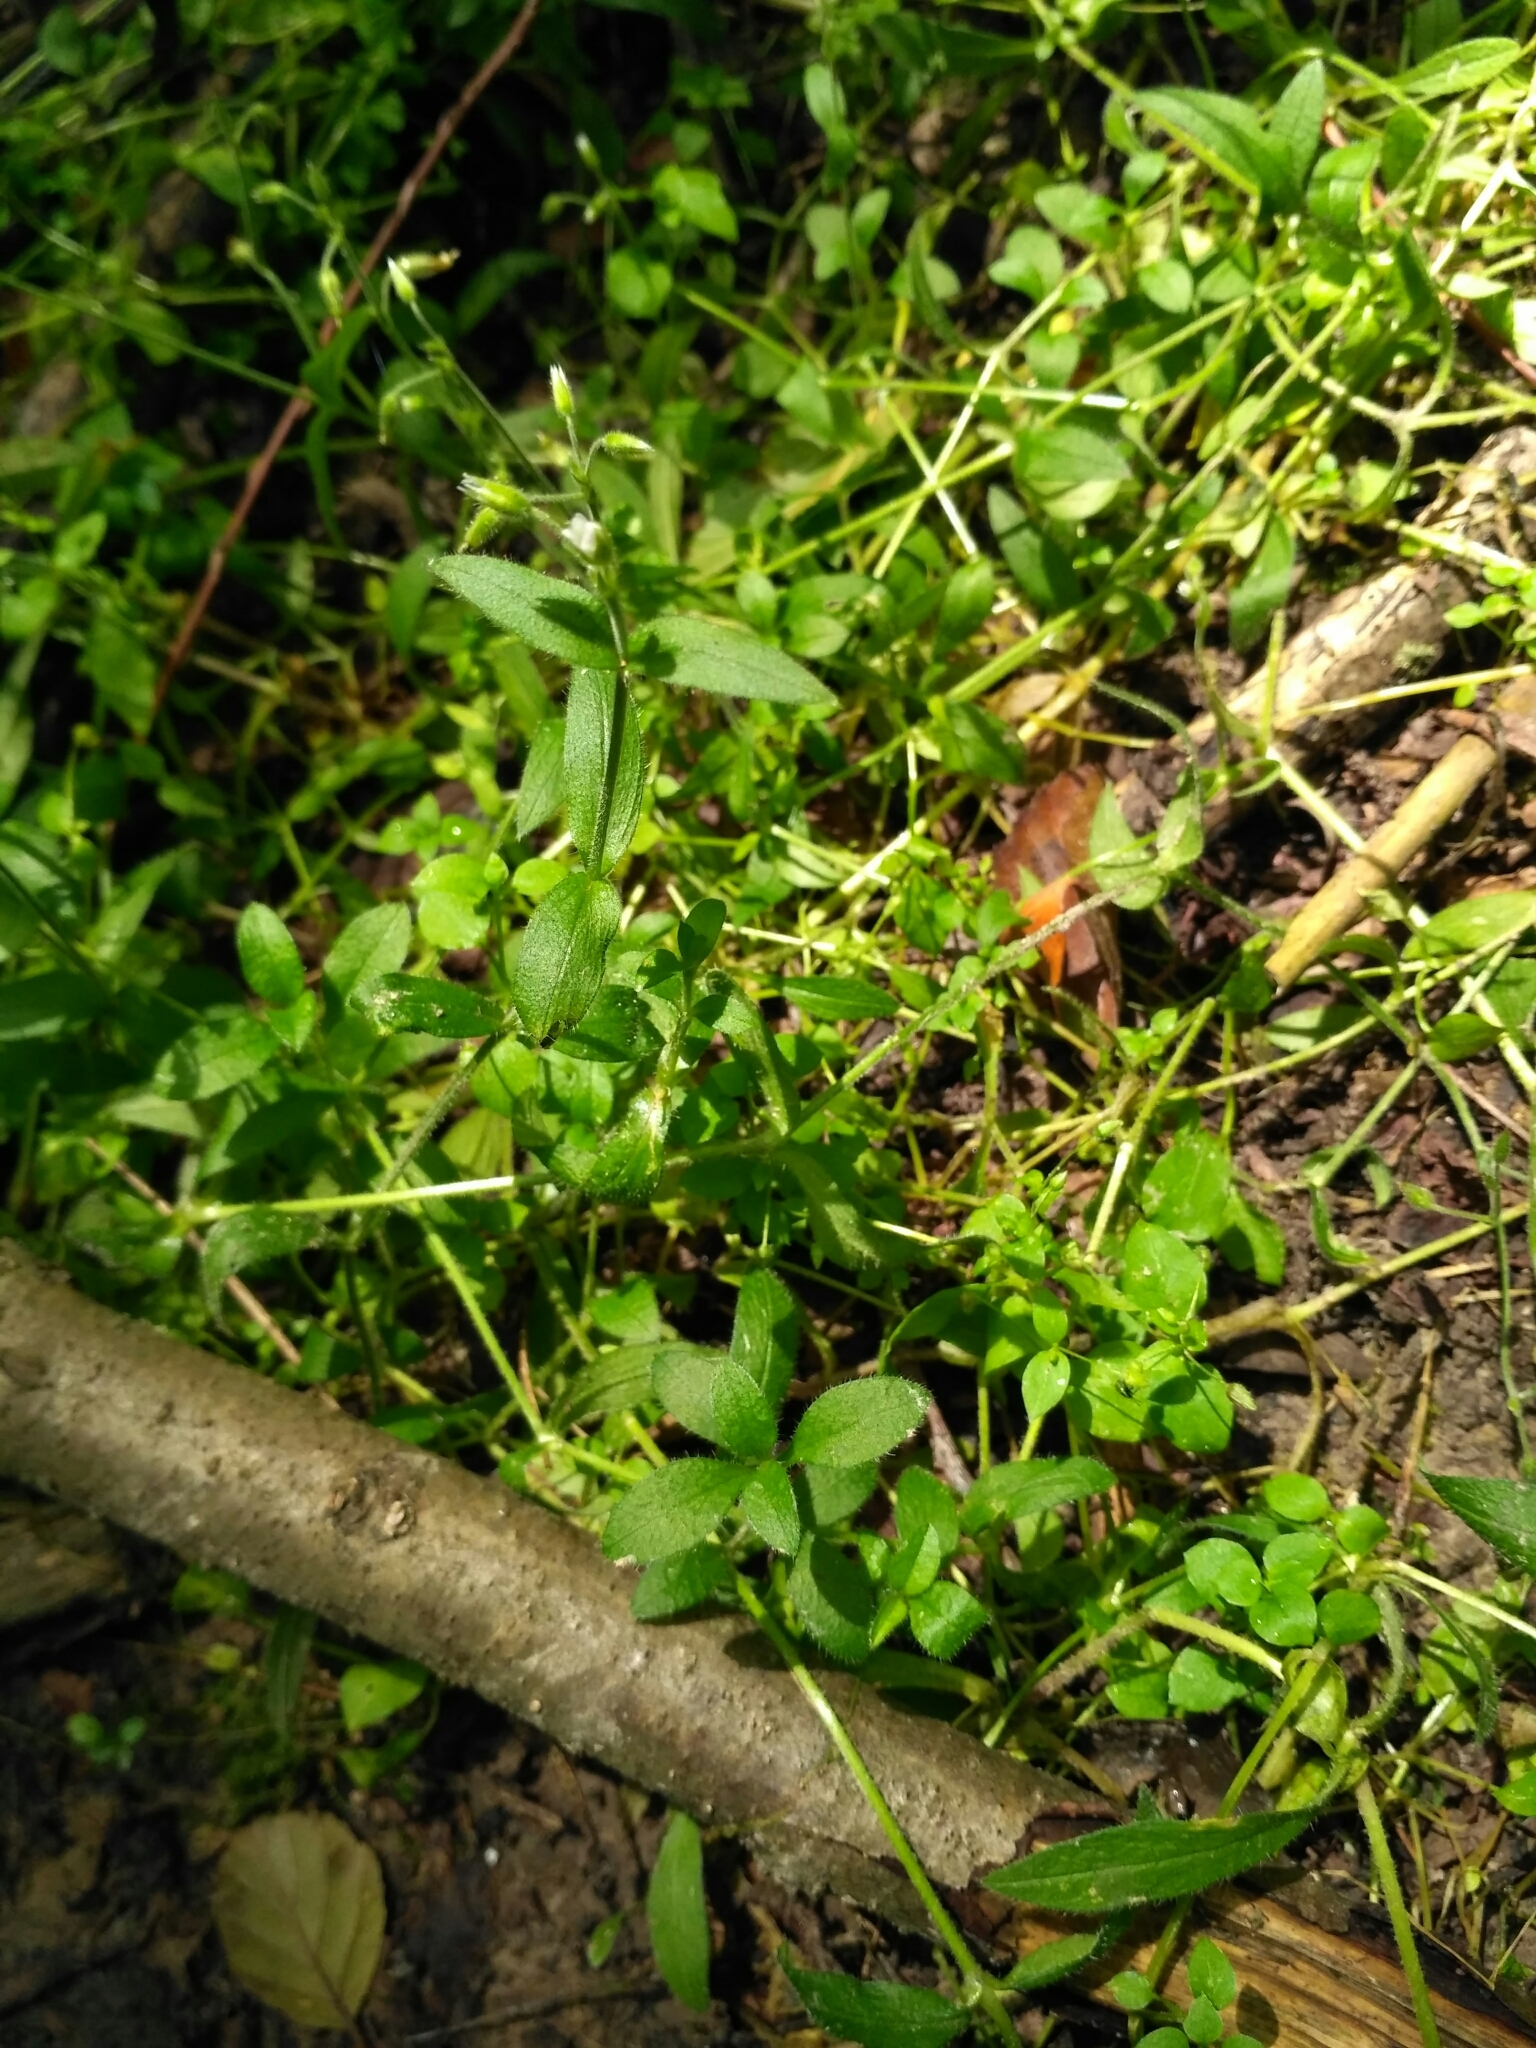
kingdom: Plantae
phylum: Tracheophyta
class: Magnoliopsida
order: Caryophyllales
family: Caryophyllaceae
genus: Cerastium
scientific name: Cerastium holosteoides
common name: Big chickweed
